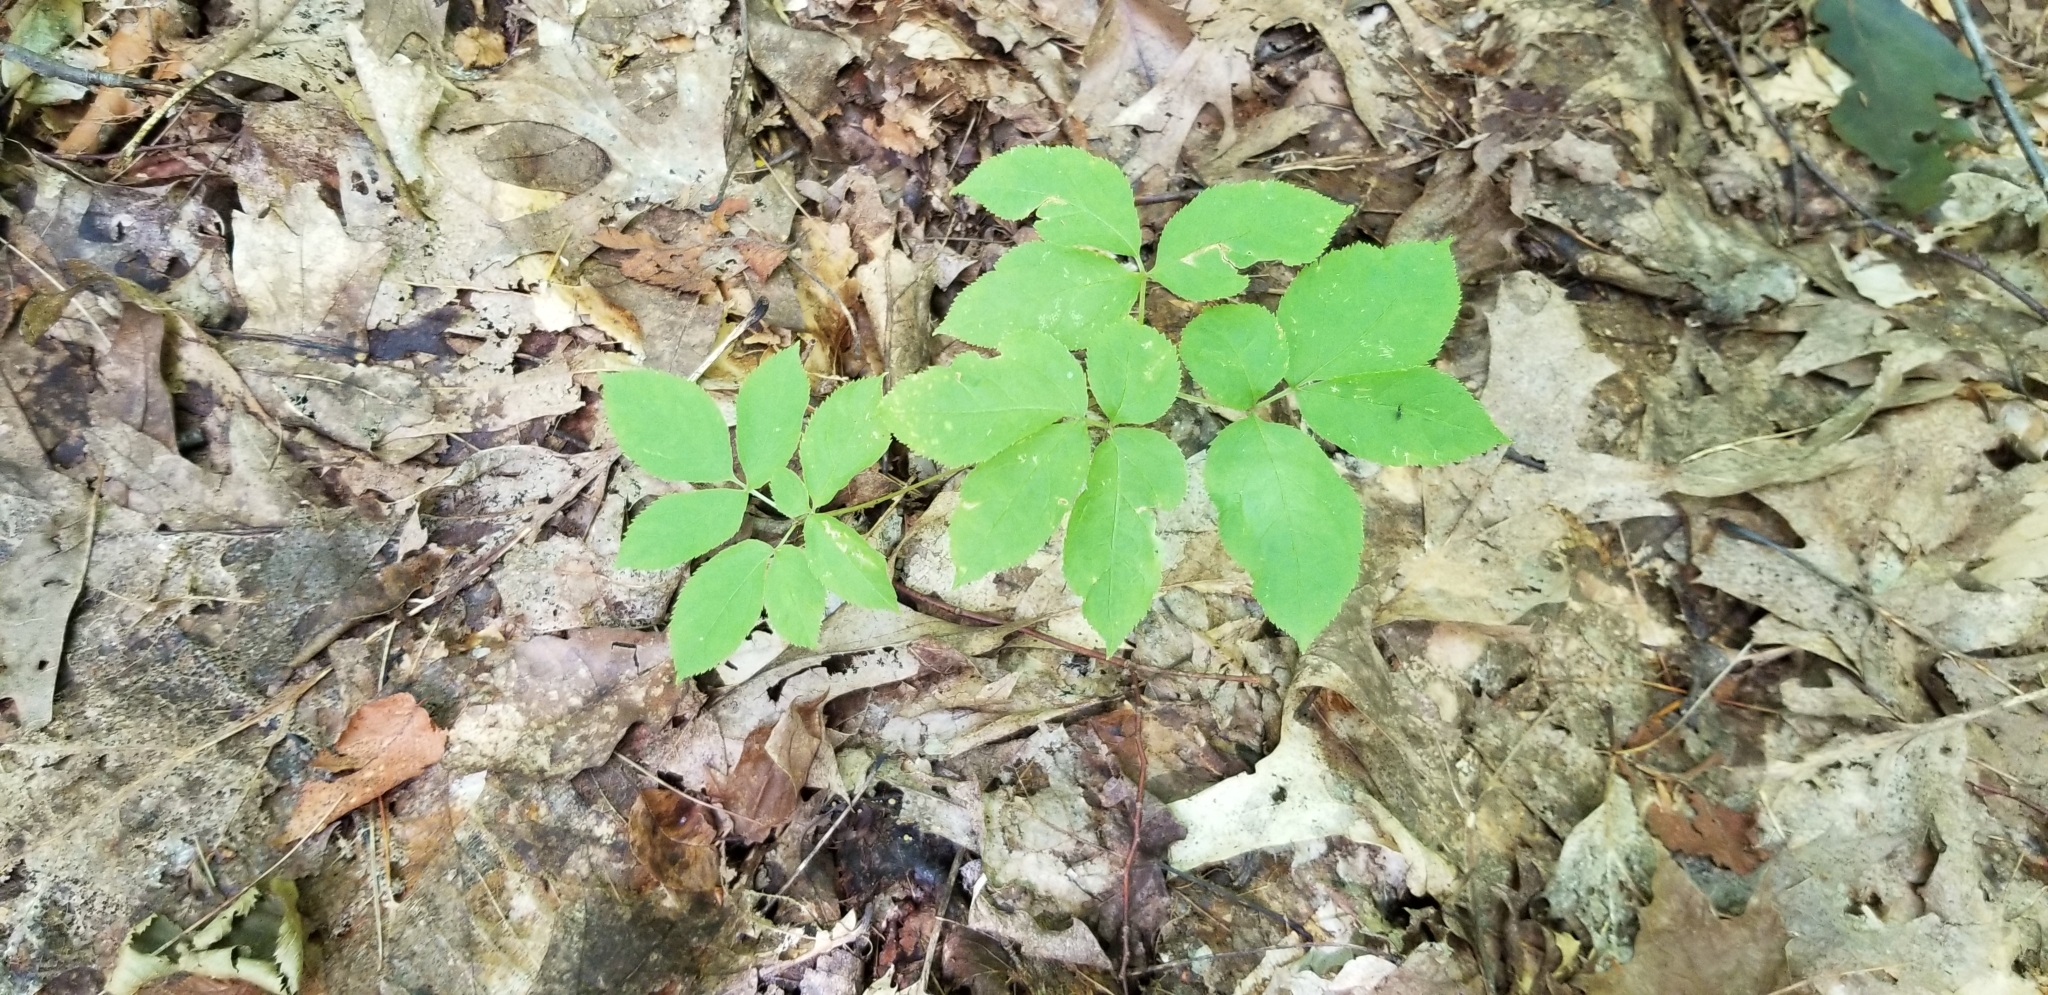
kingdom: Plantae
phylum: Tracheophyta
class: Magnoliopsida
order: Apiales
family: Araliaceae
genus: Aralia
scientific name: Aralia nudicaulis
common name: Wild sarsaparilla
